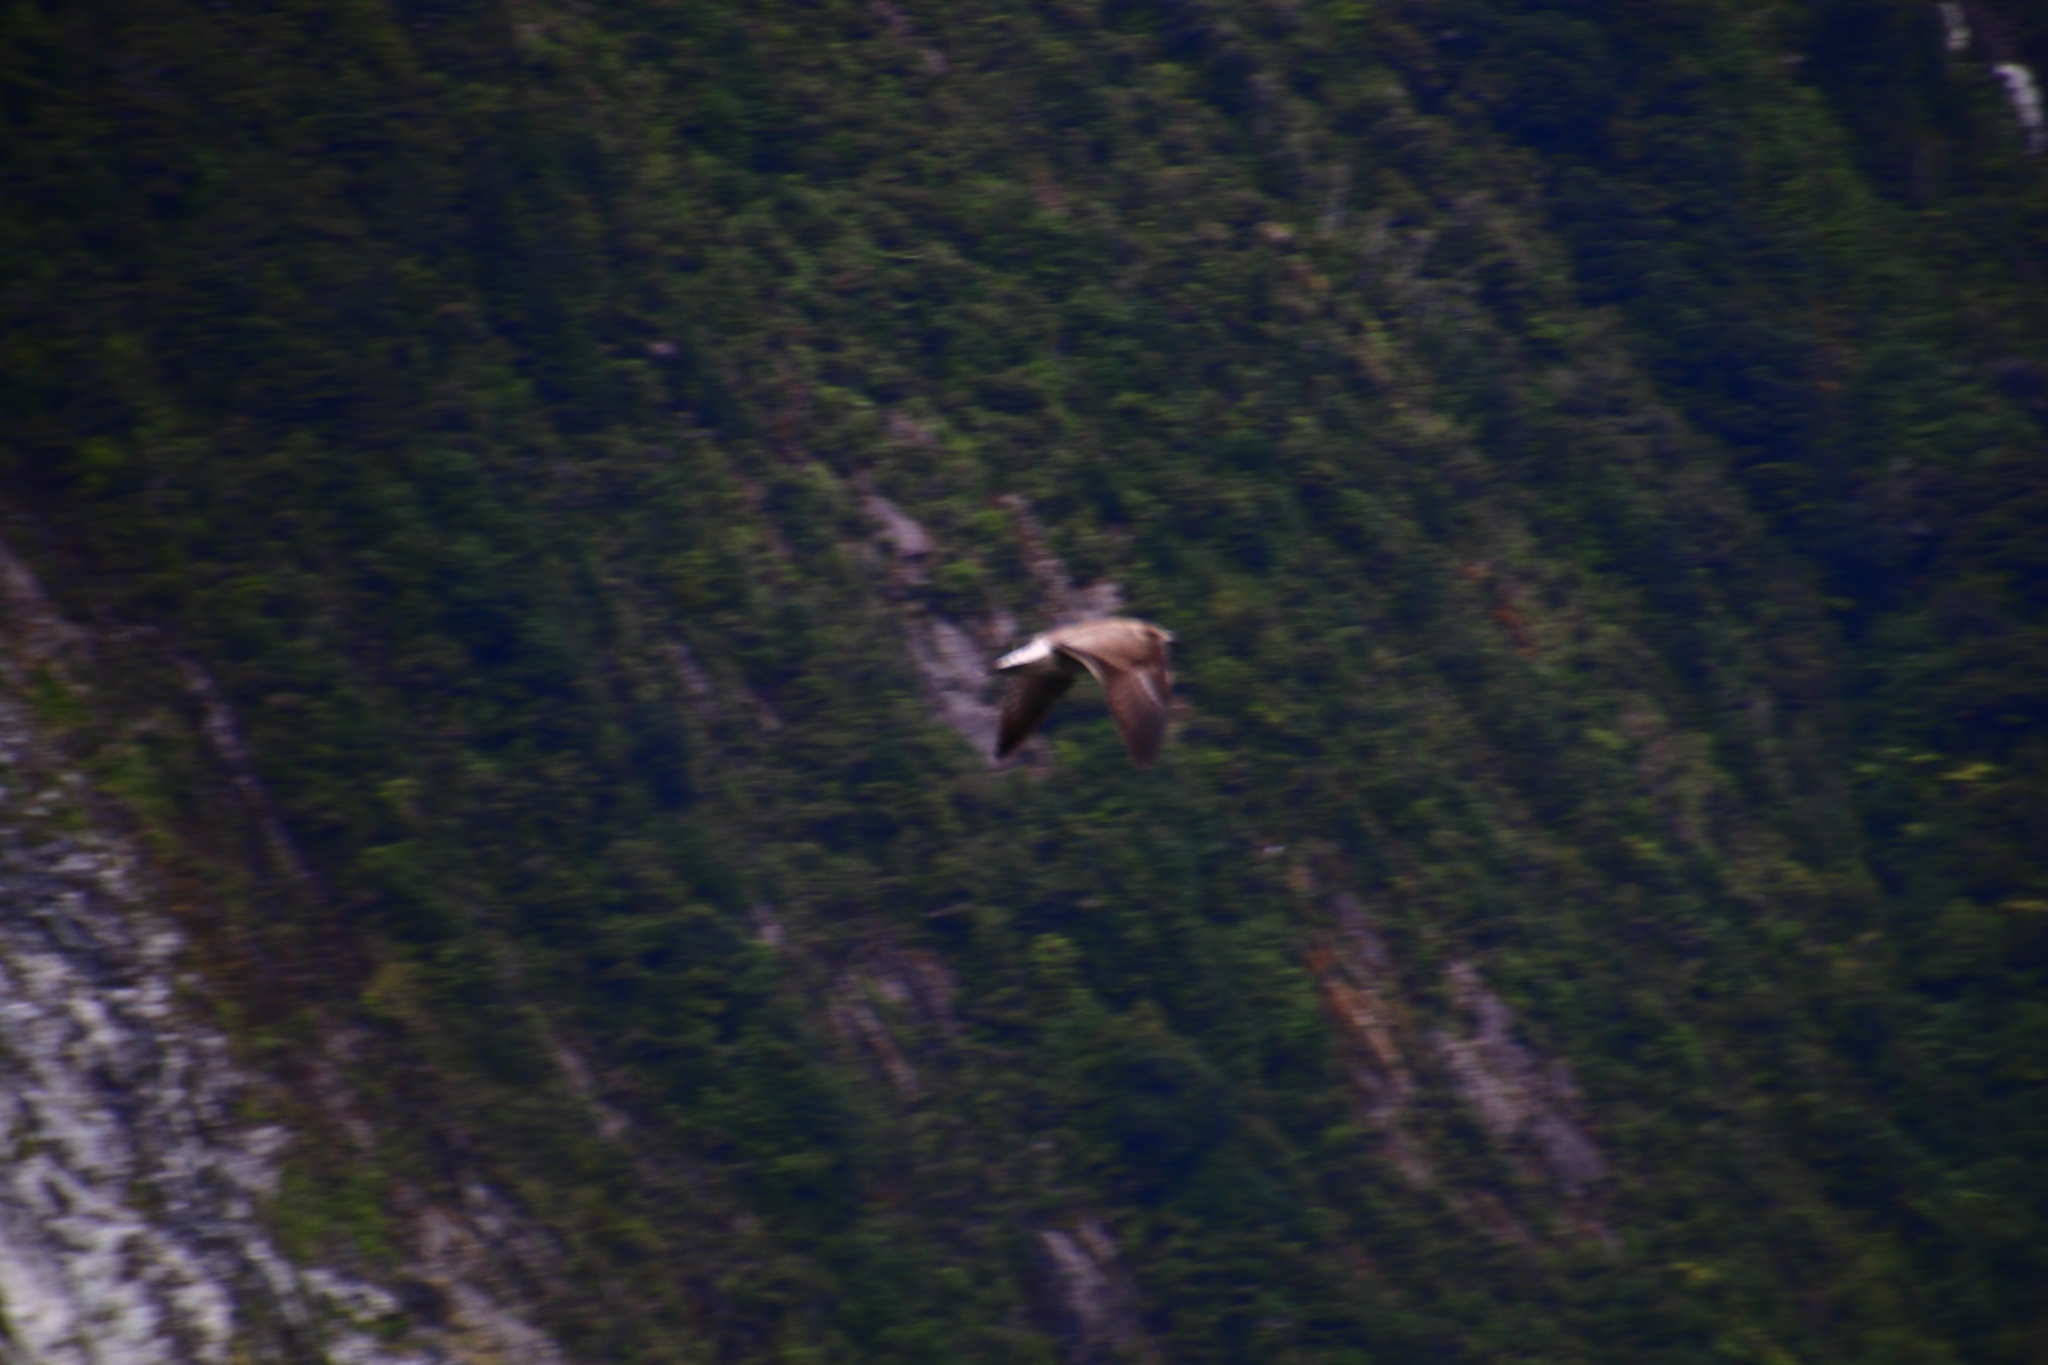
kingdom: Animalia
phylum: Chordata
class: Aves
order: Charadriiformes
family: Laridae
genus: Larus
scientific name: Larus dominicanus
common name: Kelp gull
